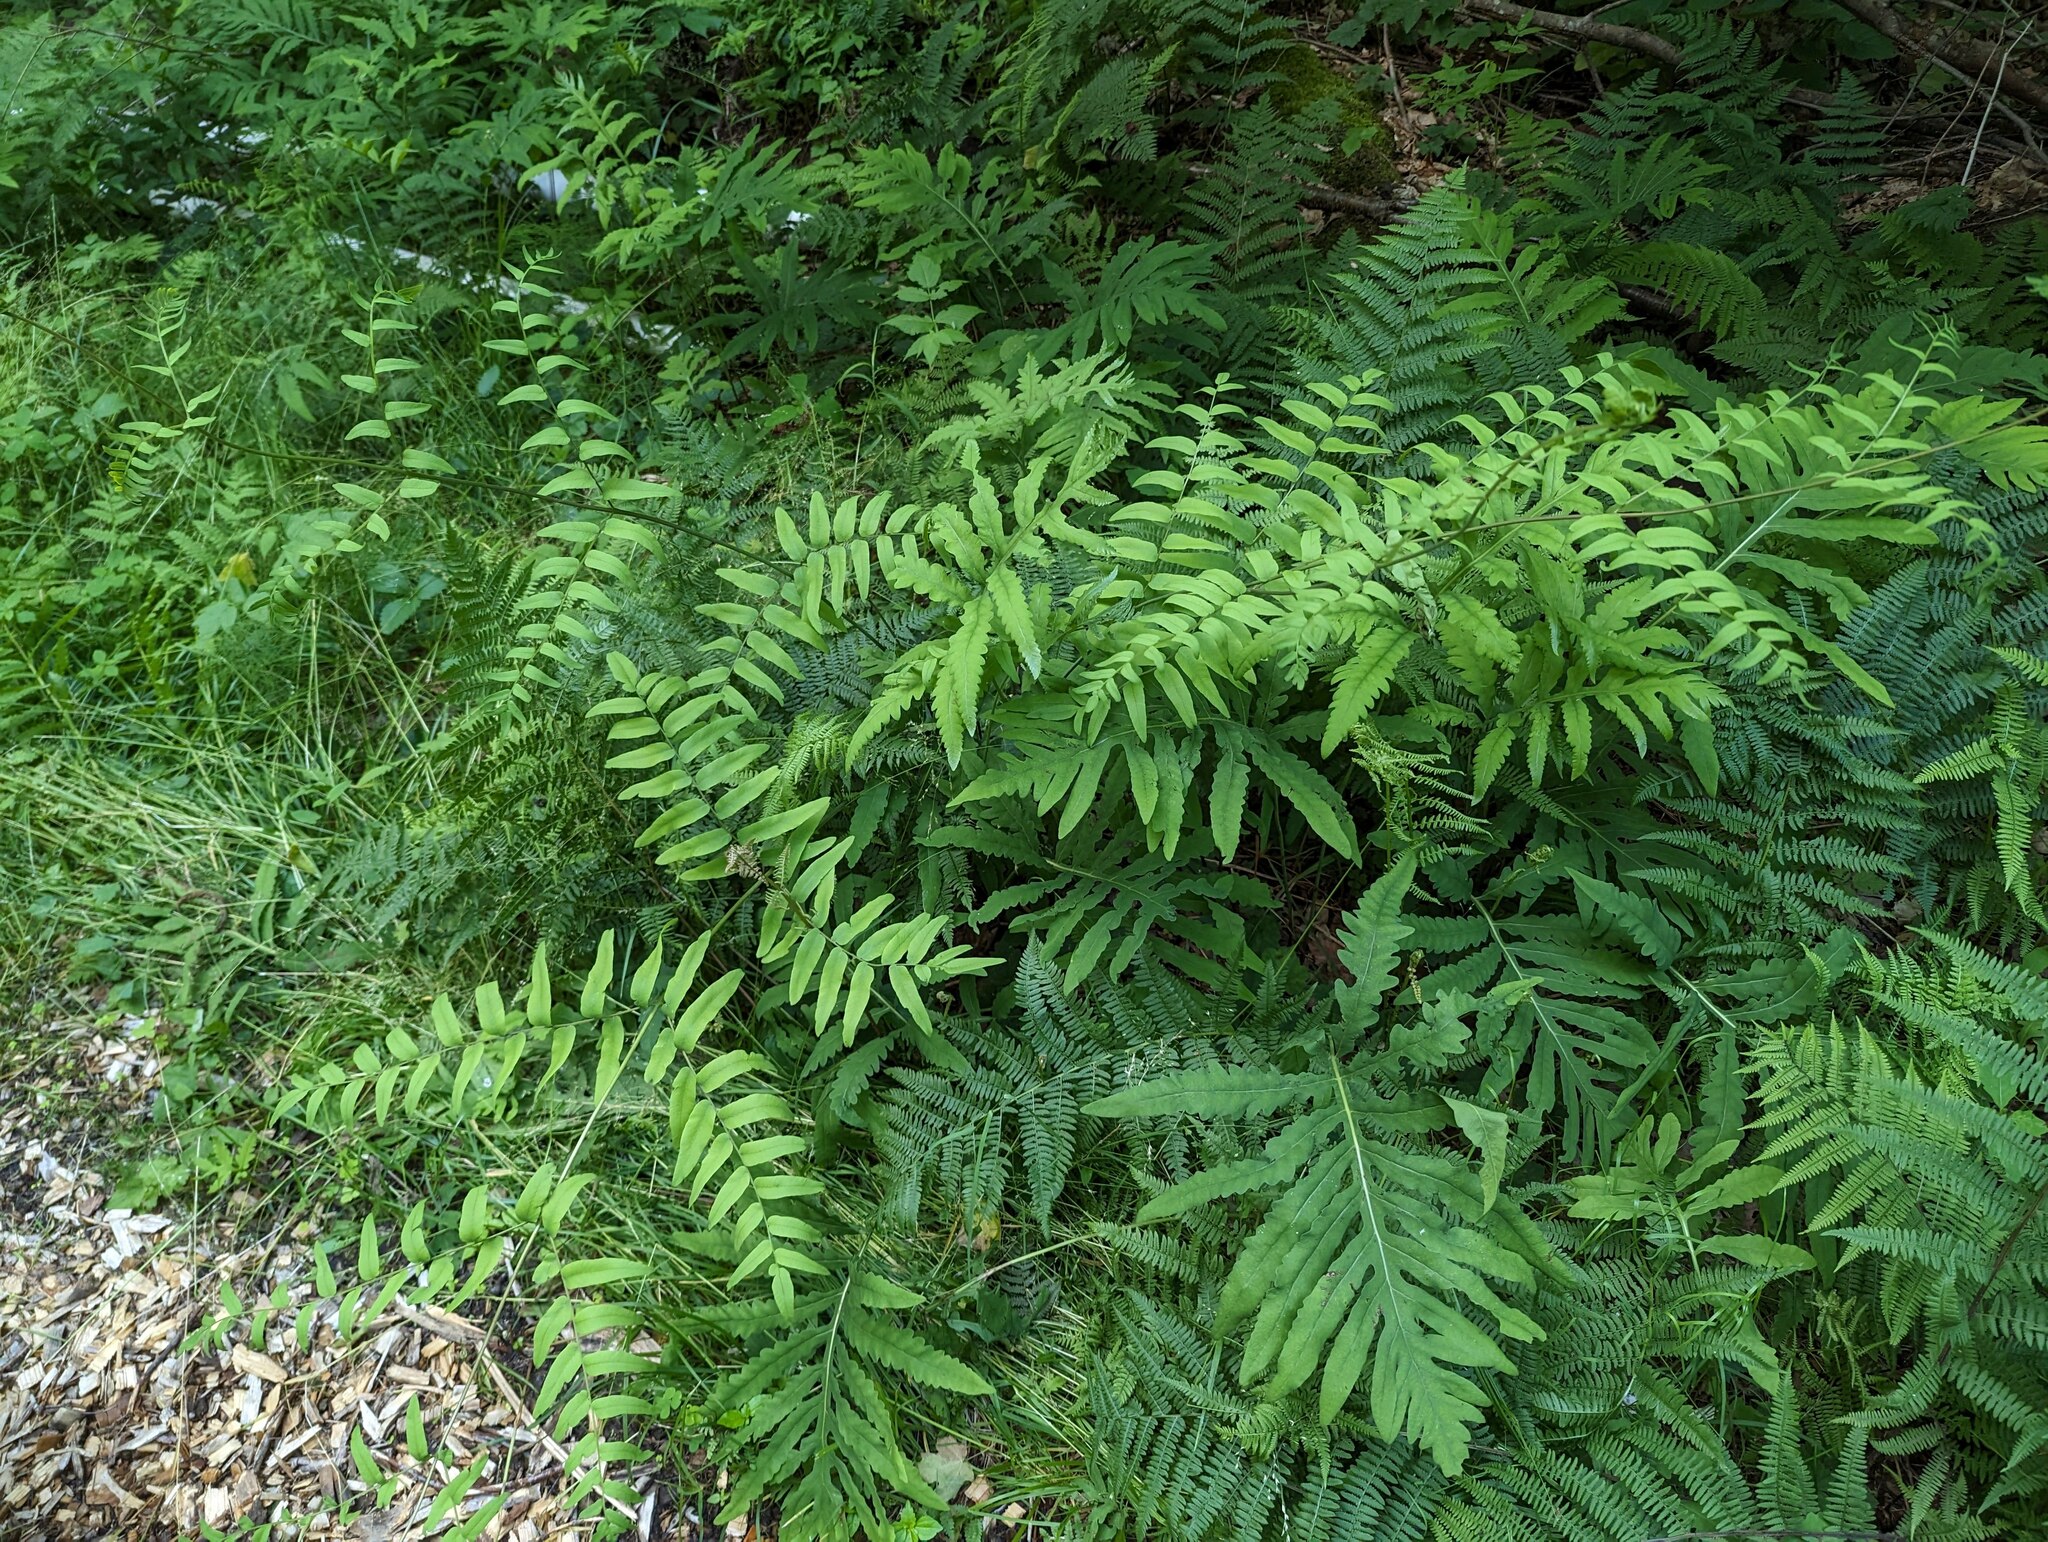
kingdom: Plantae
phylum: Tracheophyta
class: Polypodiopsida
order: Osmundales
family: Osmundaceae
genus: Osmunda
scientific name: Osmunda spectabilis
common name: American royal fern
